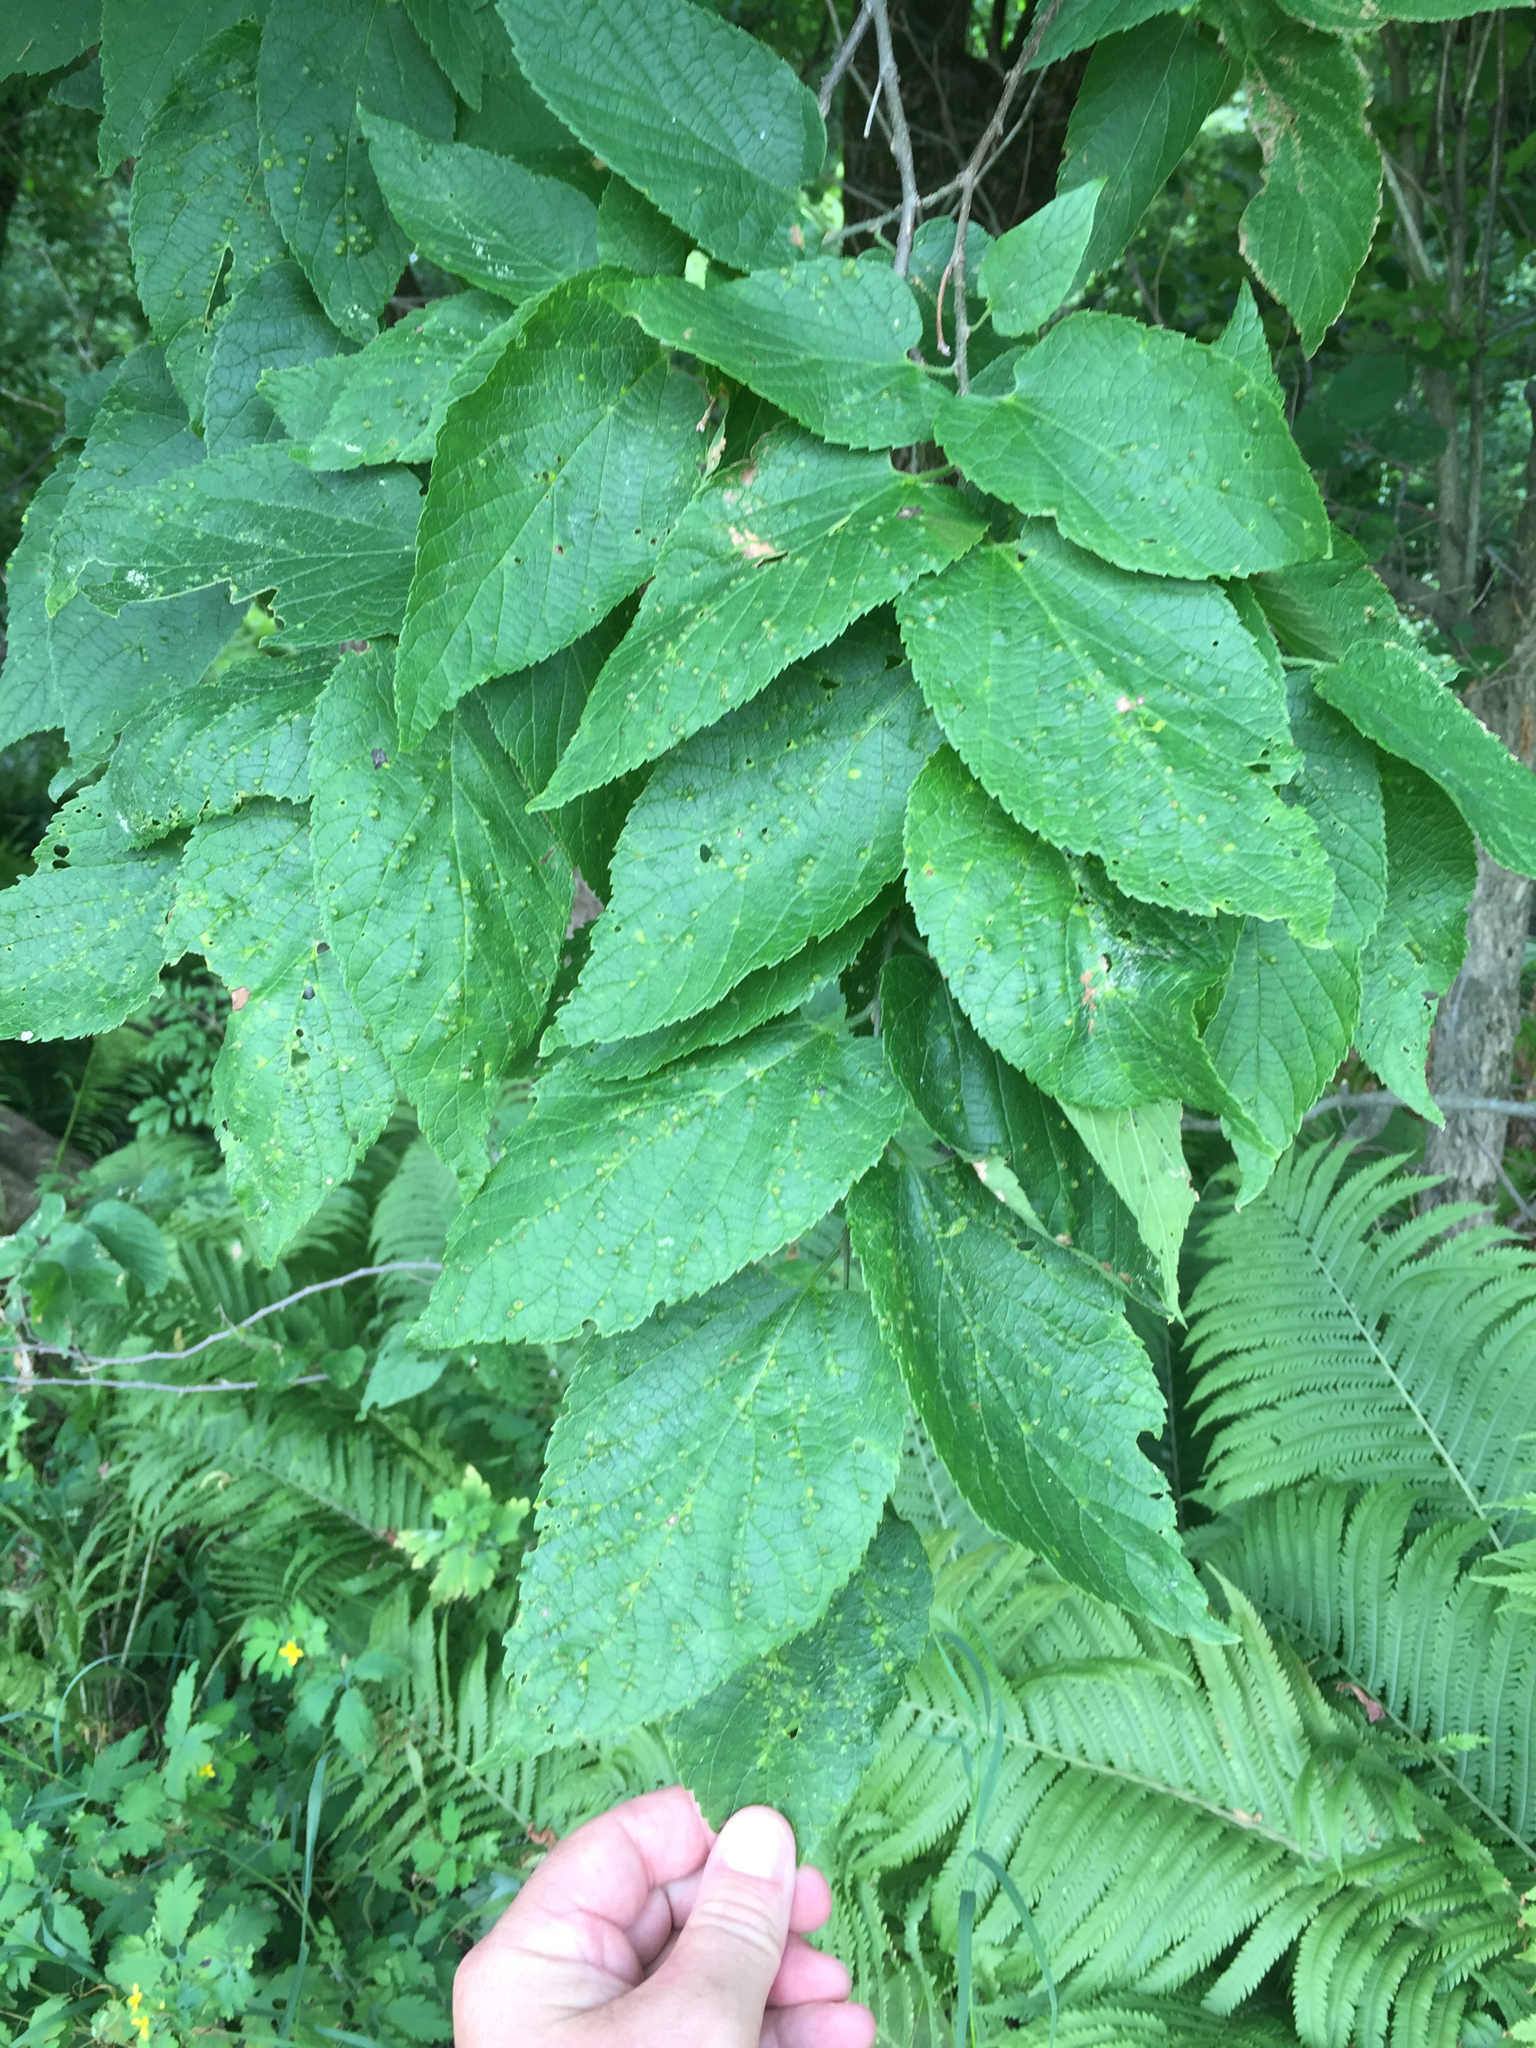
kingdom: Plantae
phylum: Tracheophyta
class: Magnoliopsida
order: Rosales
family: Cannabaceae
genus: Celtis
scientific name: Celtis occidentalis
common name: Common hackberry
